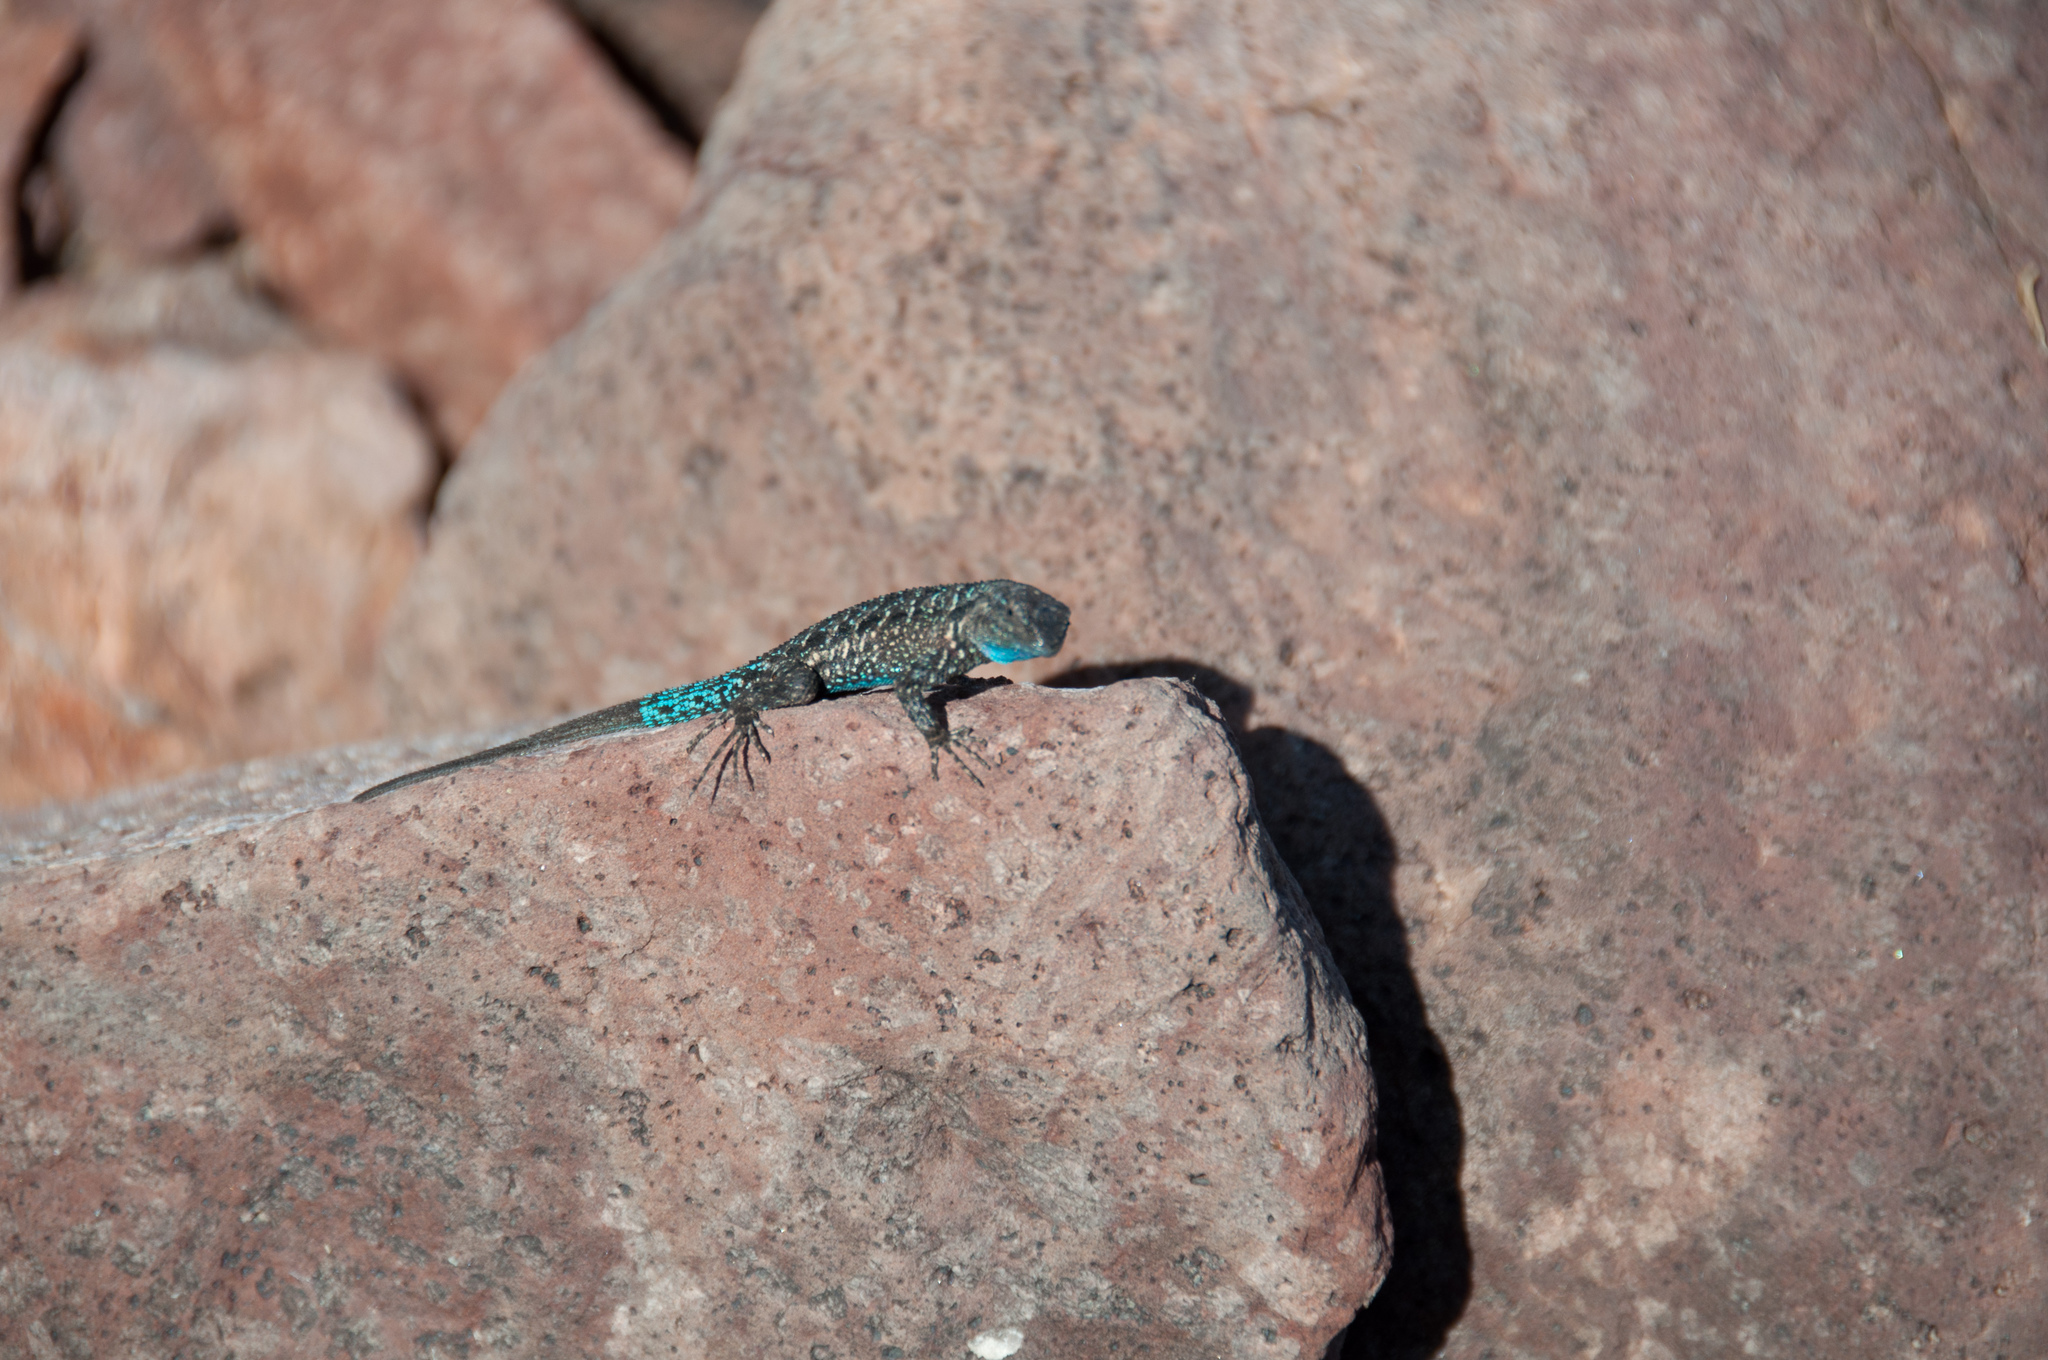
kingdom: Animalia
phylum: Chordata
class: Squamata
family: Phrynosomatidae
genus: Urosaurus
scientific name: Urosaurus ornatus
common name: Ornate tree lizard
